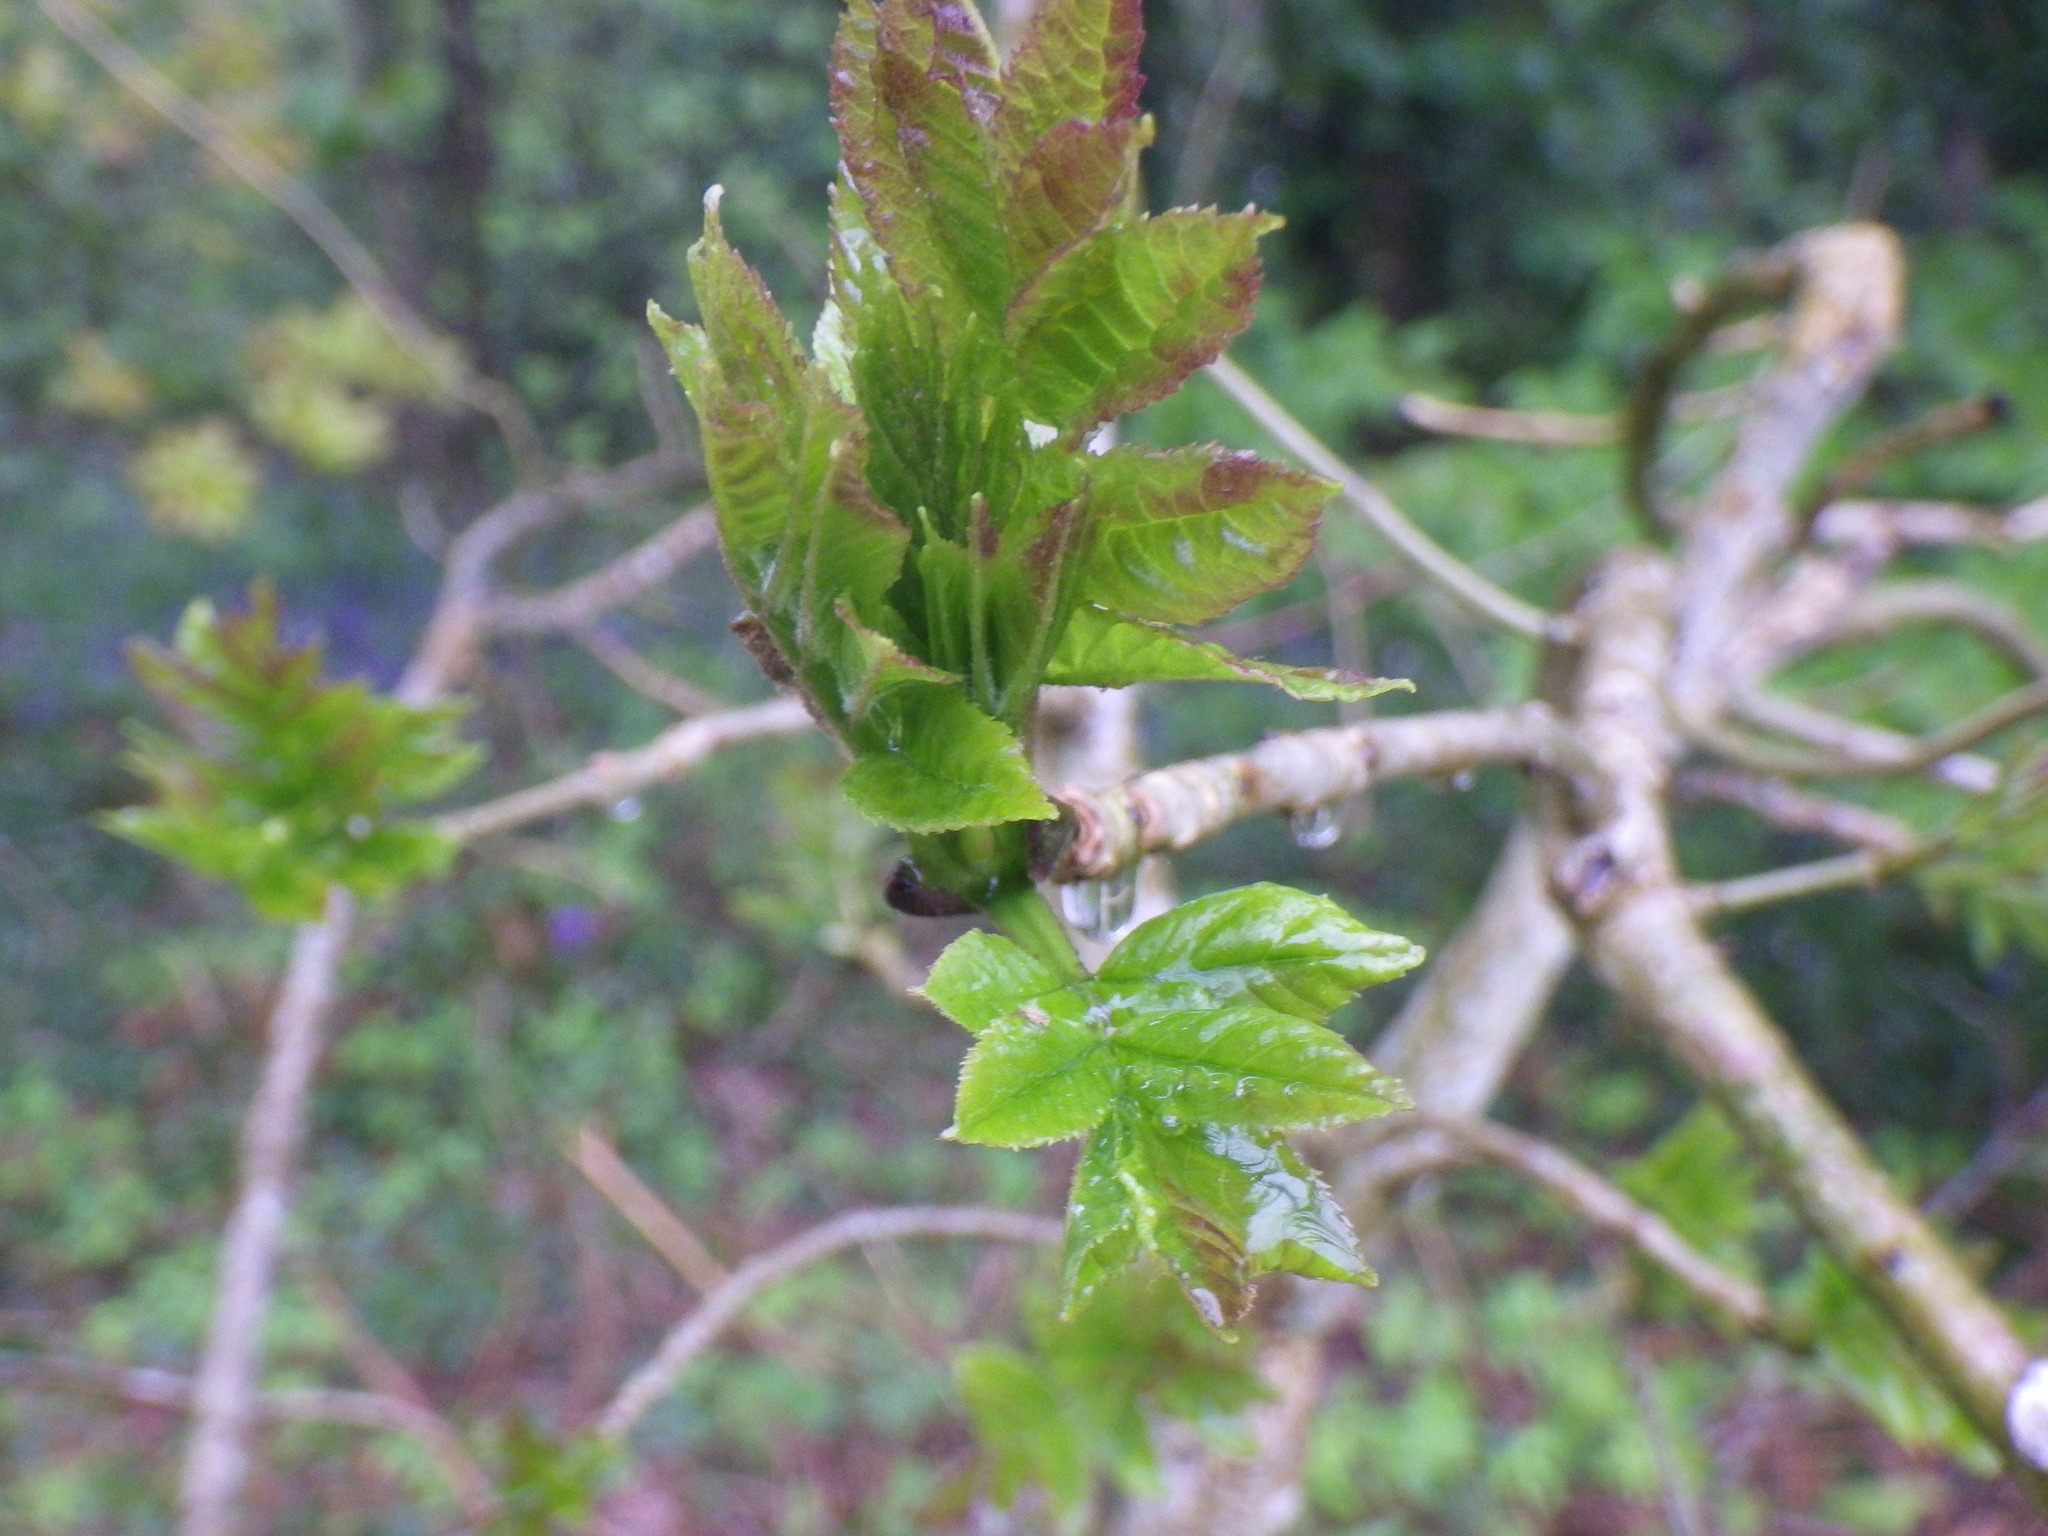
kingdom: Plantae
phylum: Tracheophyta
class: Magnoliopsida
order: Lamiales
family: Oleaceae
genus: Fraxinus
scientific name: Fraxinus excelsior
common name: European ash
